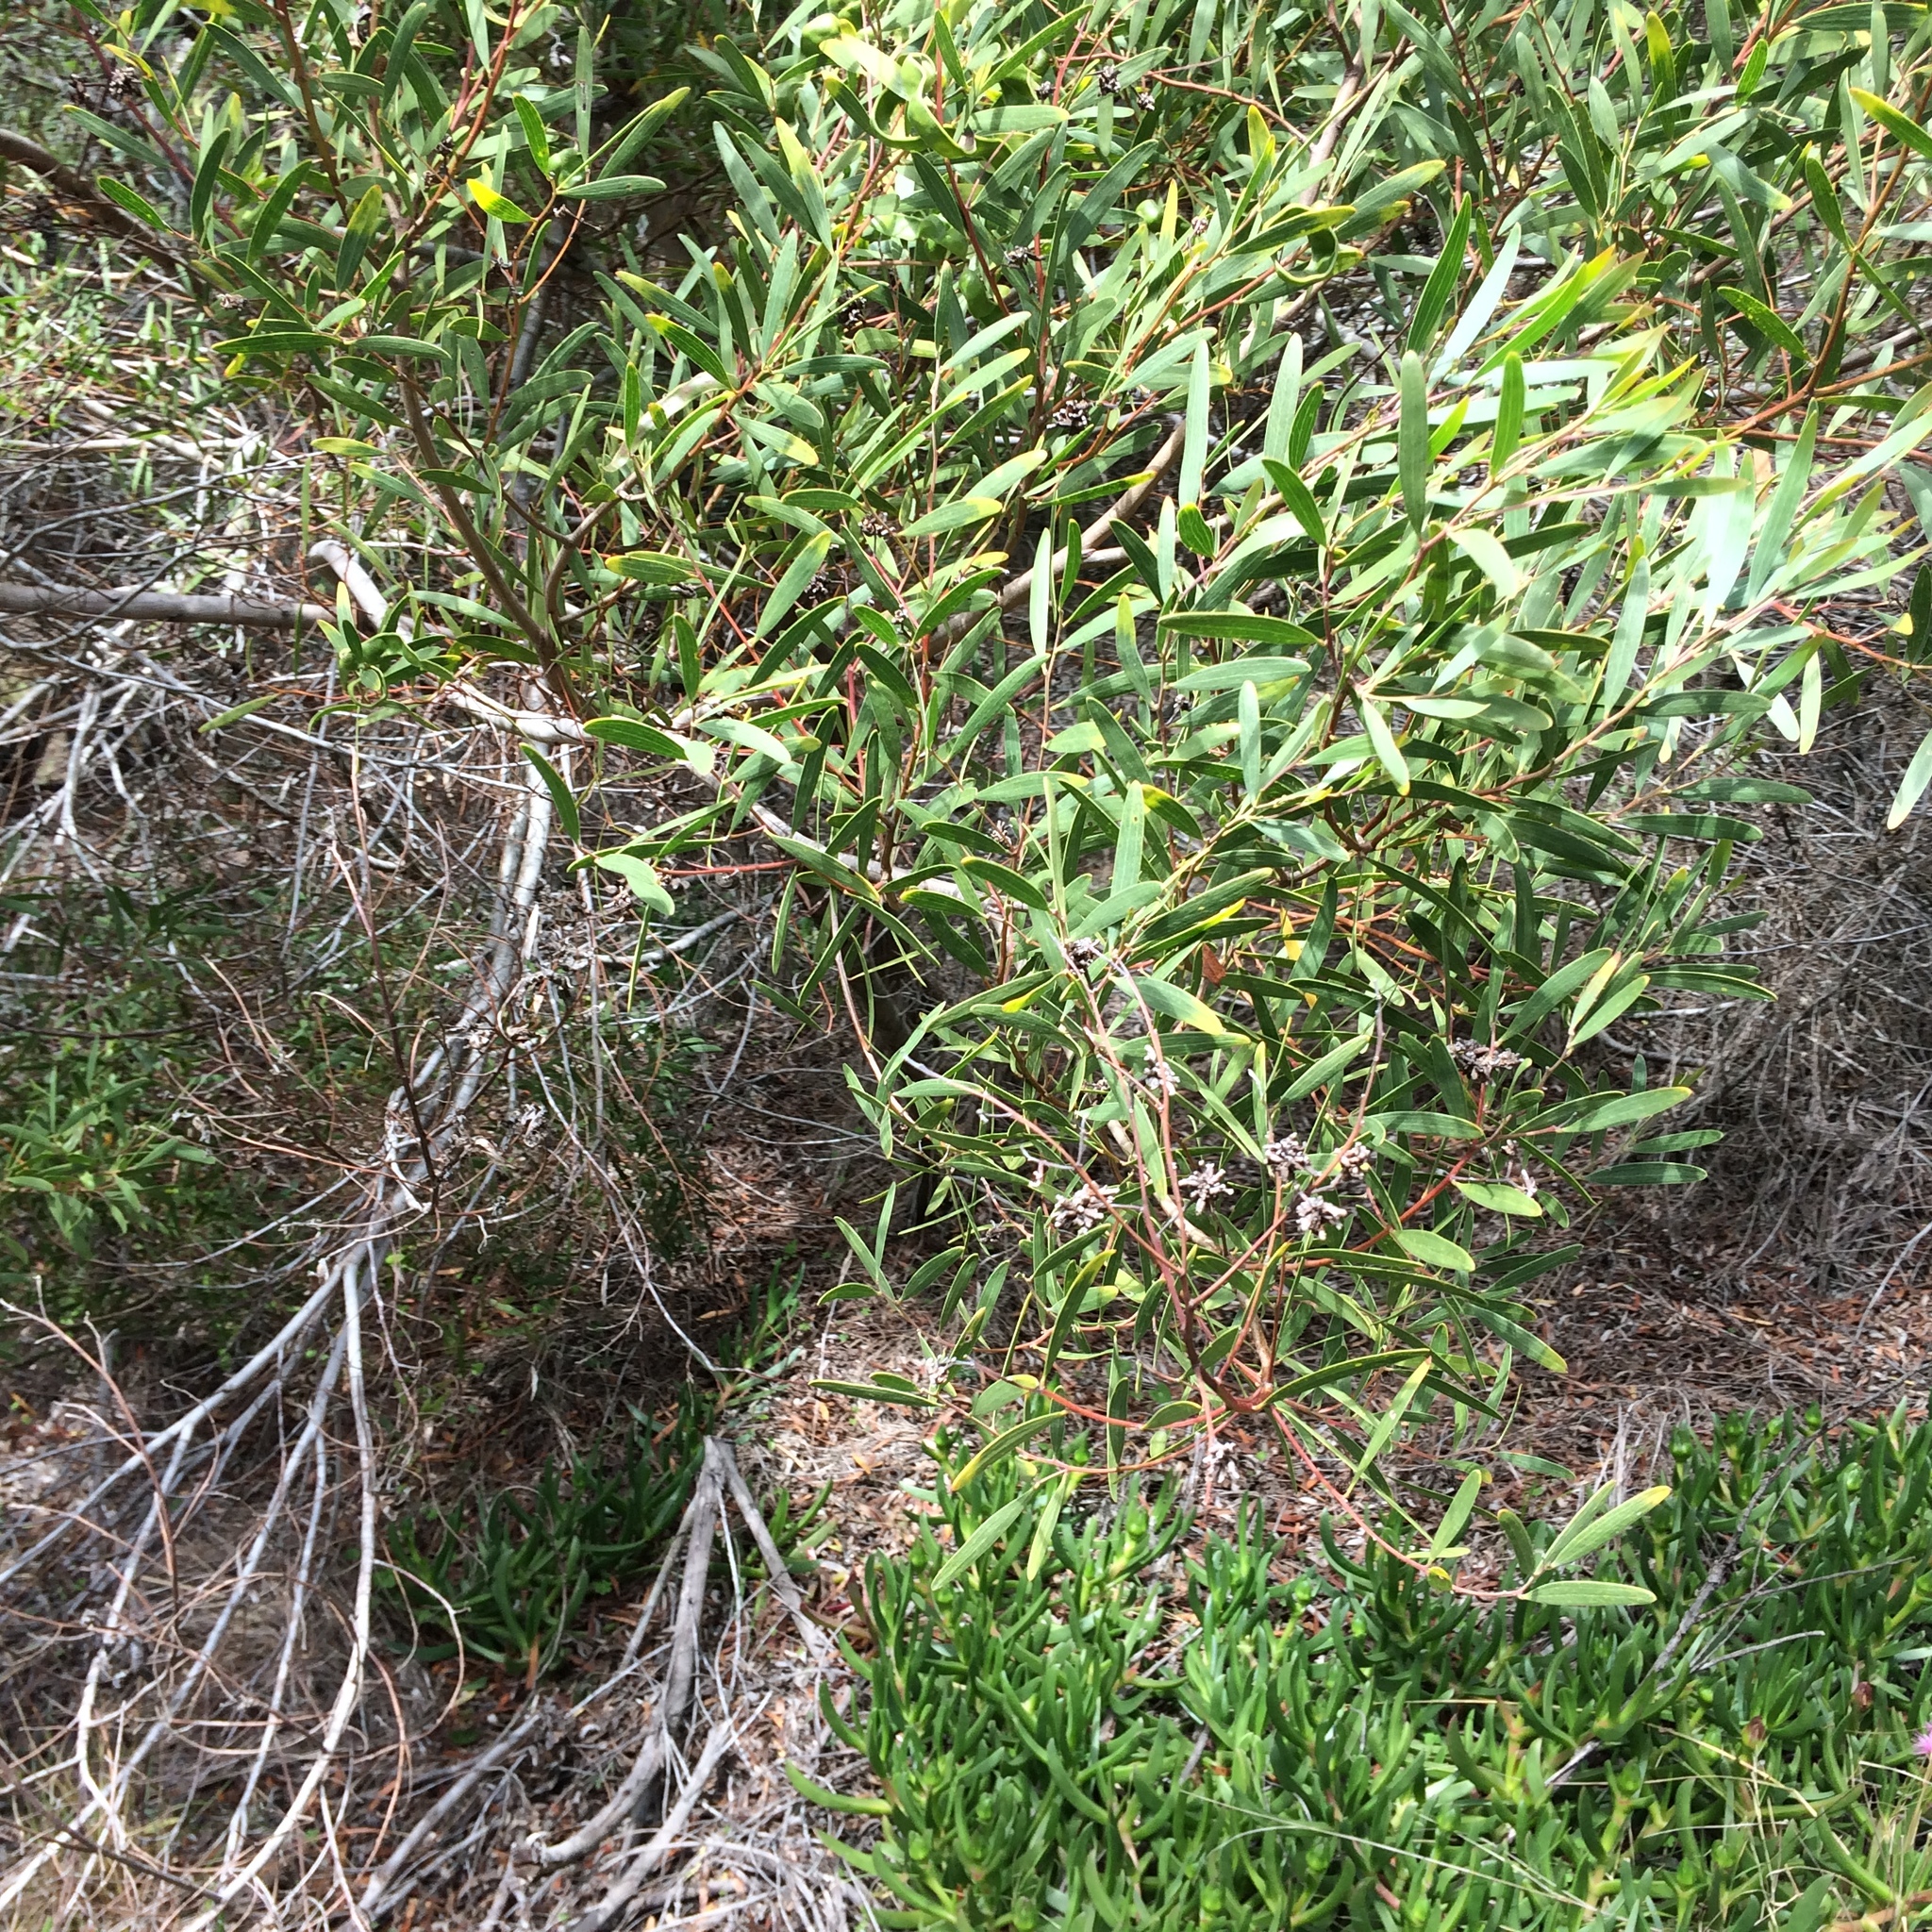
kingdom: Plantae
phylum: Tracheophyta
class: Magnoliopsida
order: Fabales
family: Fabaceae
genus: Acacia
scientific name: Acacia cyclops
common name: Coastal wattle
